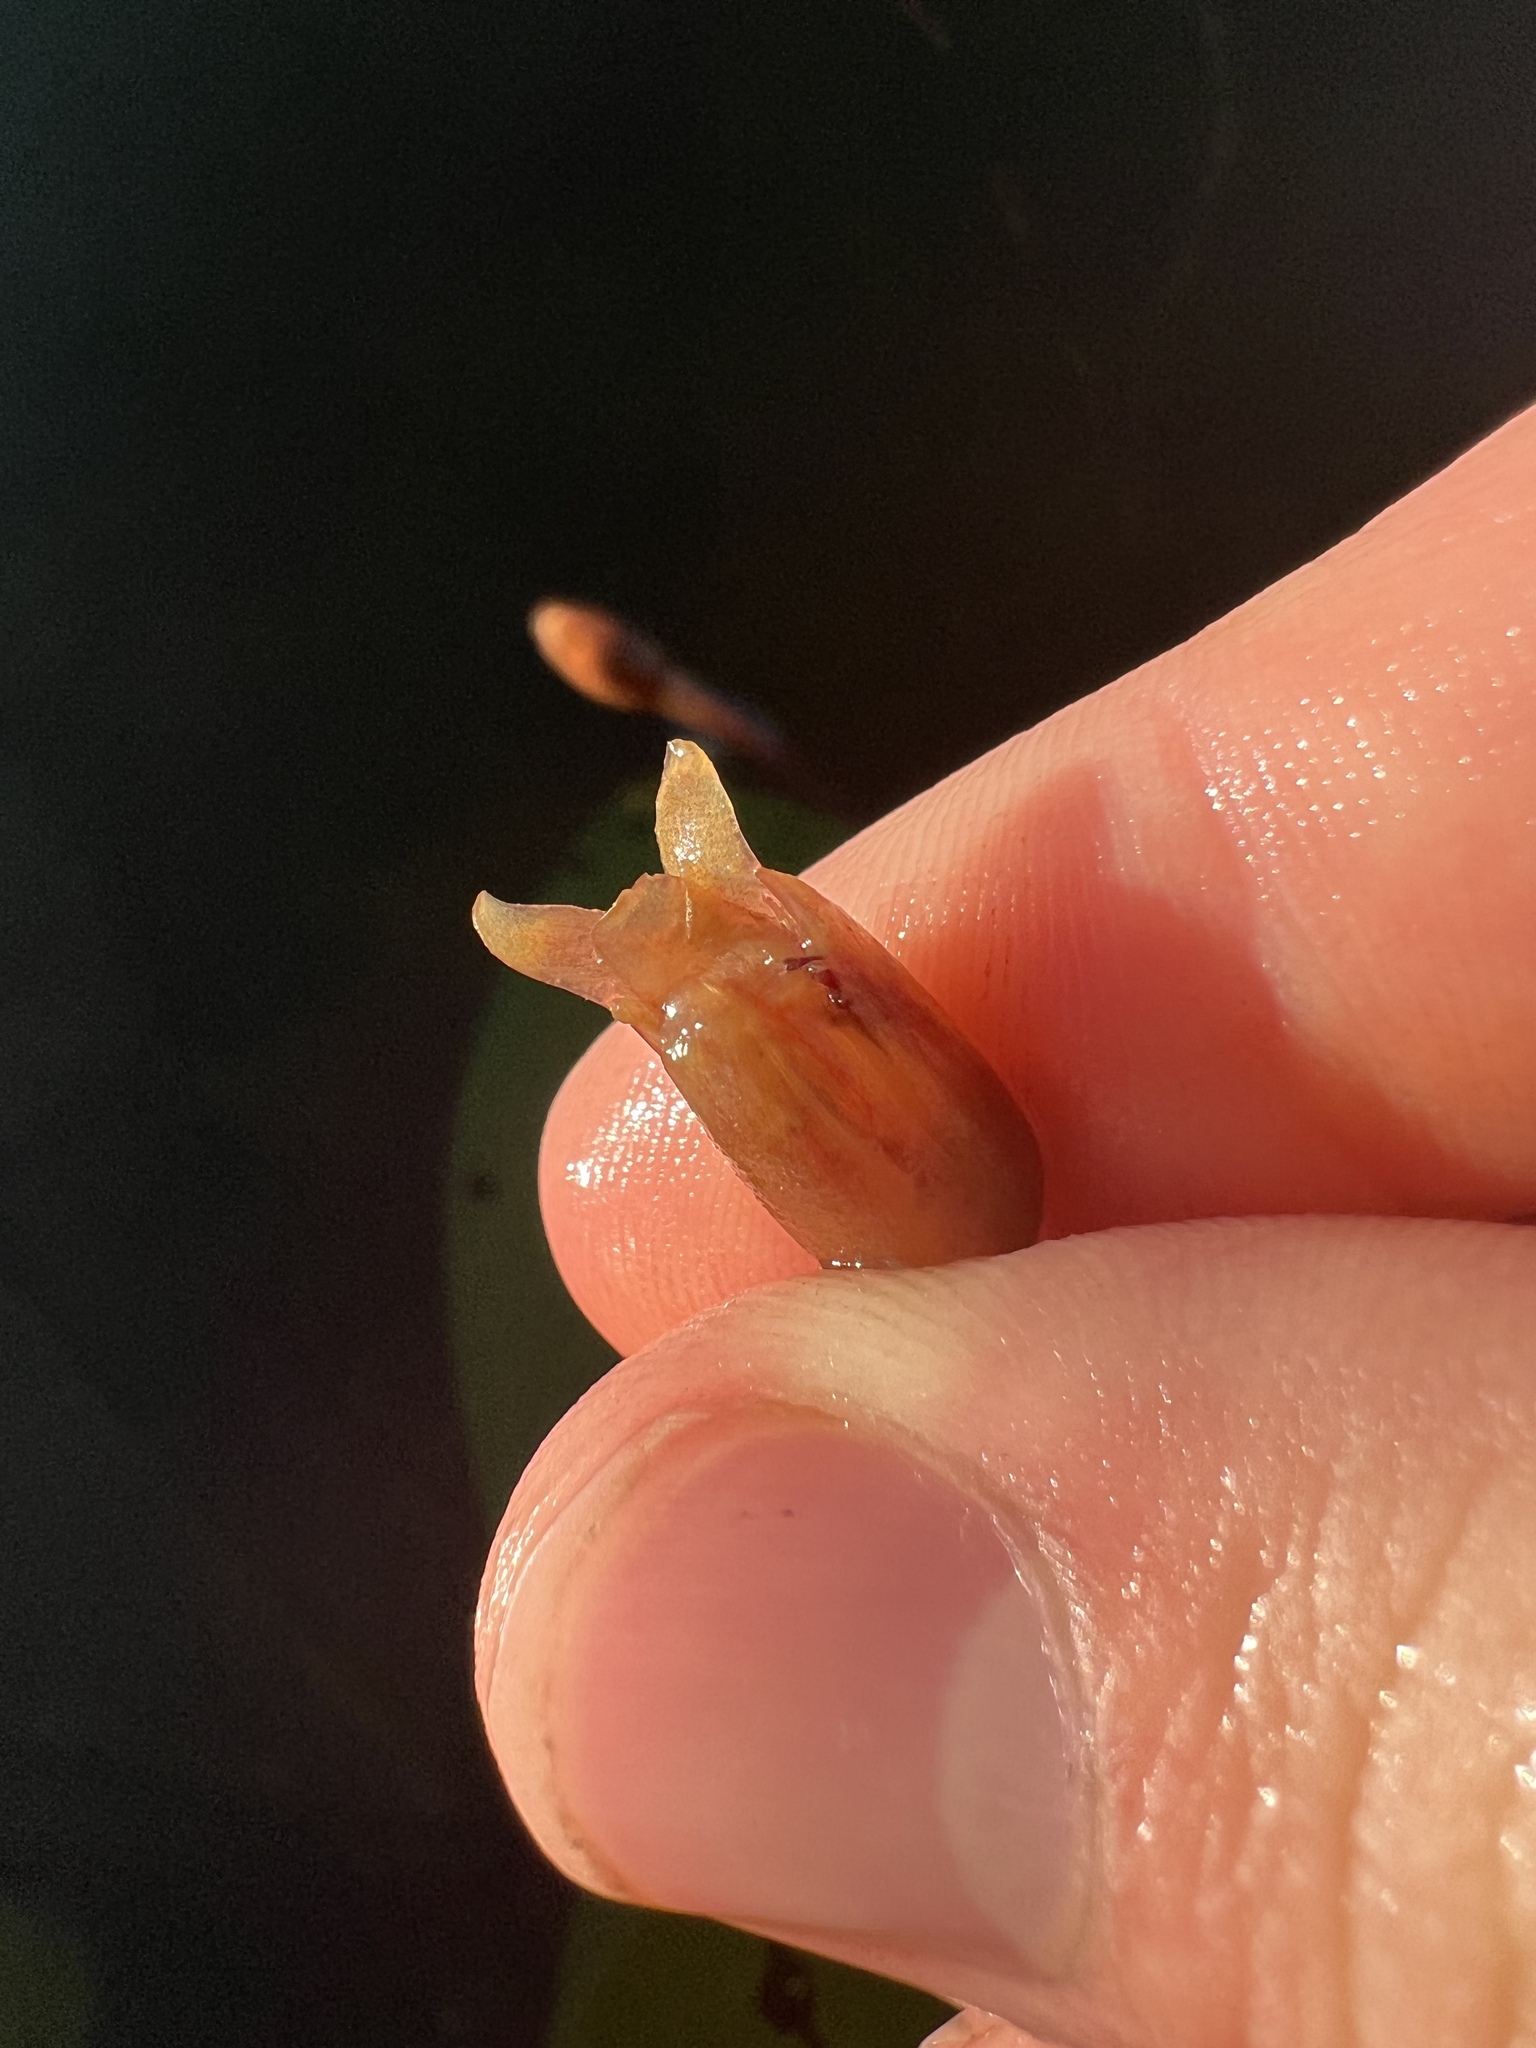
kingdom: Plantae
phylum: Tracheophyta
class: Magnoliopsida
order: Nymphaeales
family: Cabombaceae
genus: Brasenia
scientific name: Brasenia schreberi
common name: Water-shield
